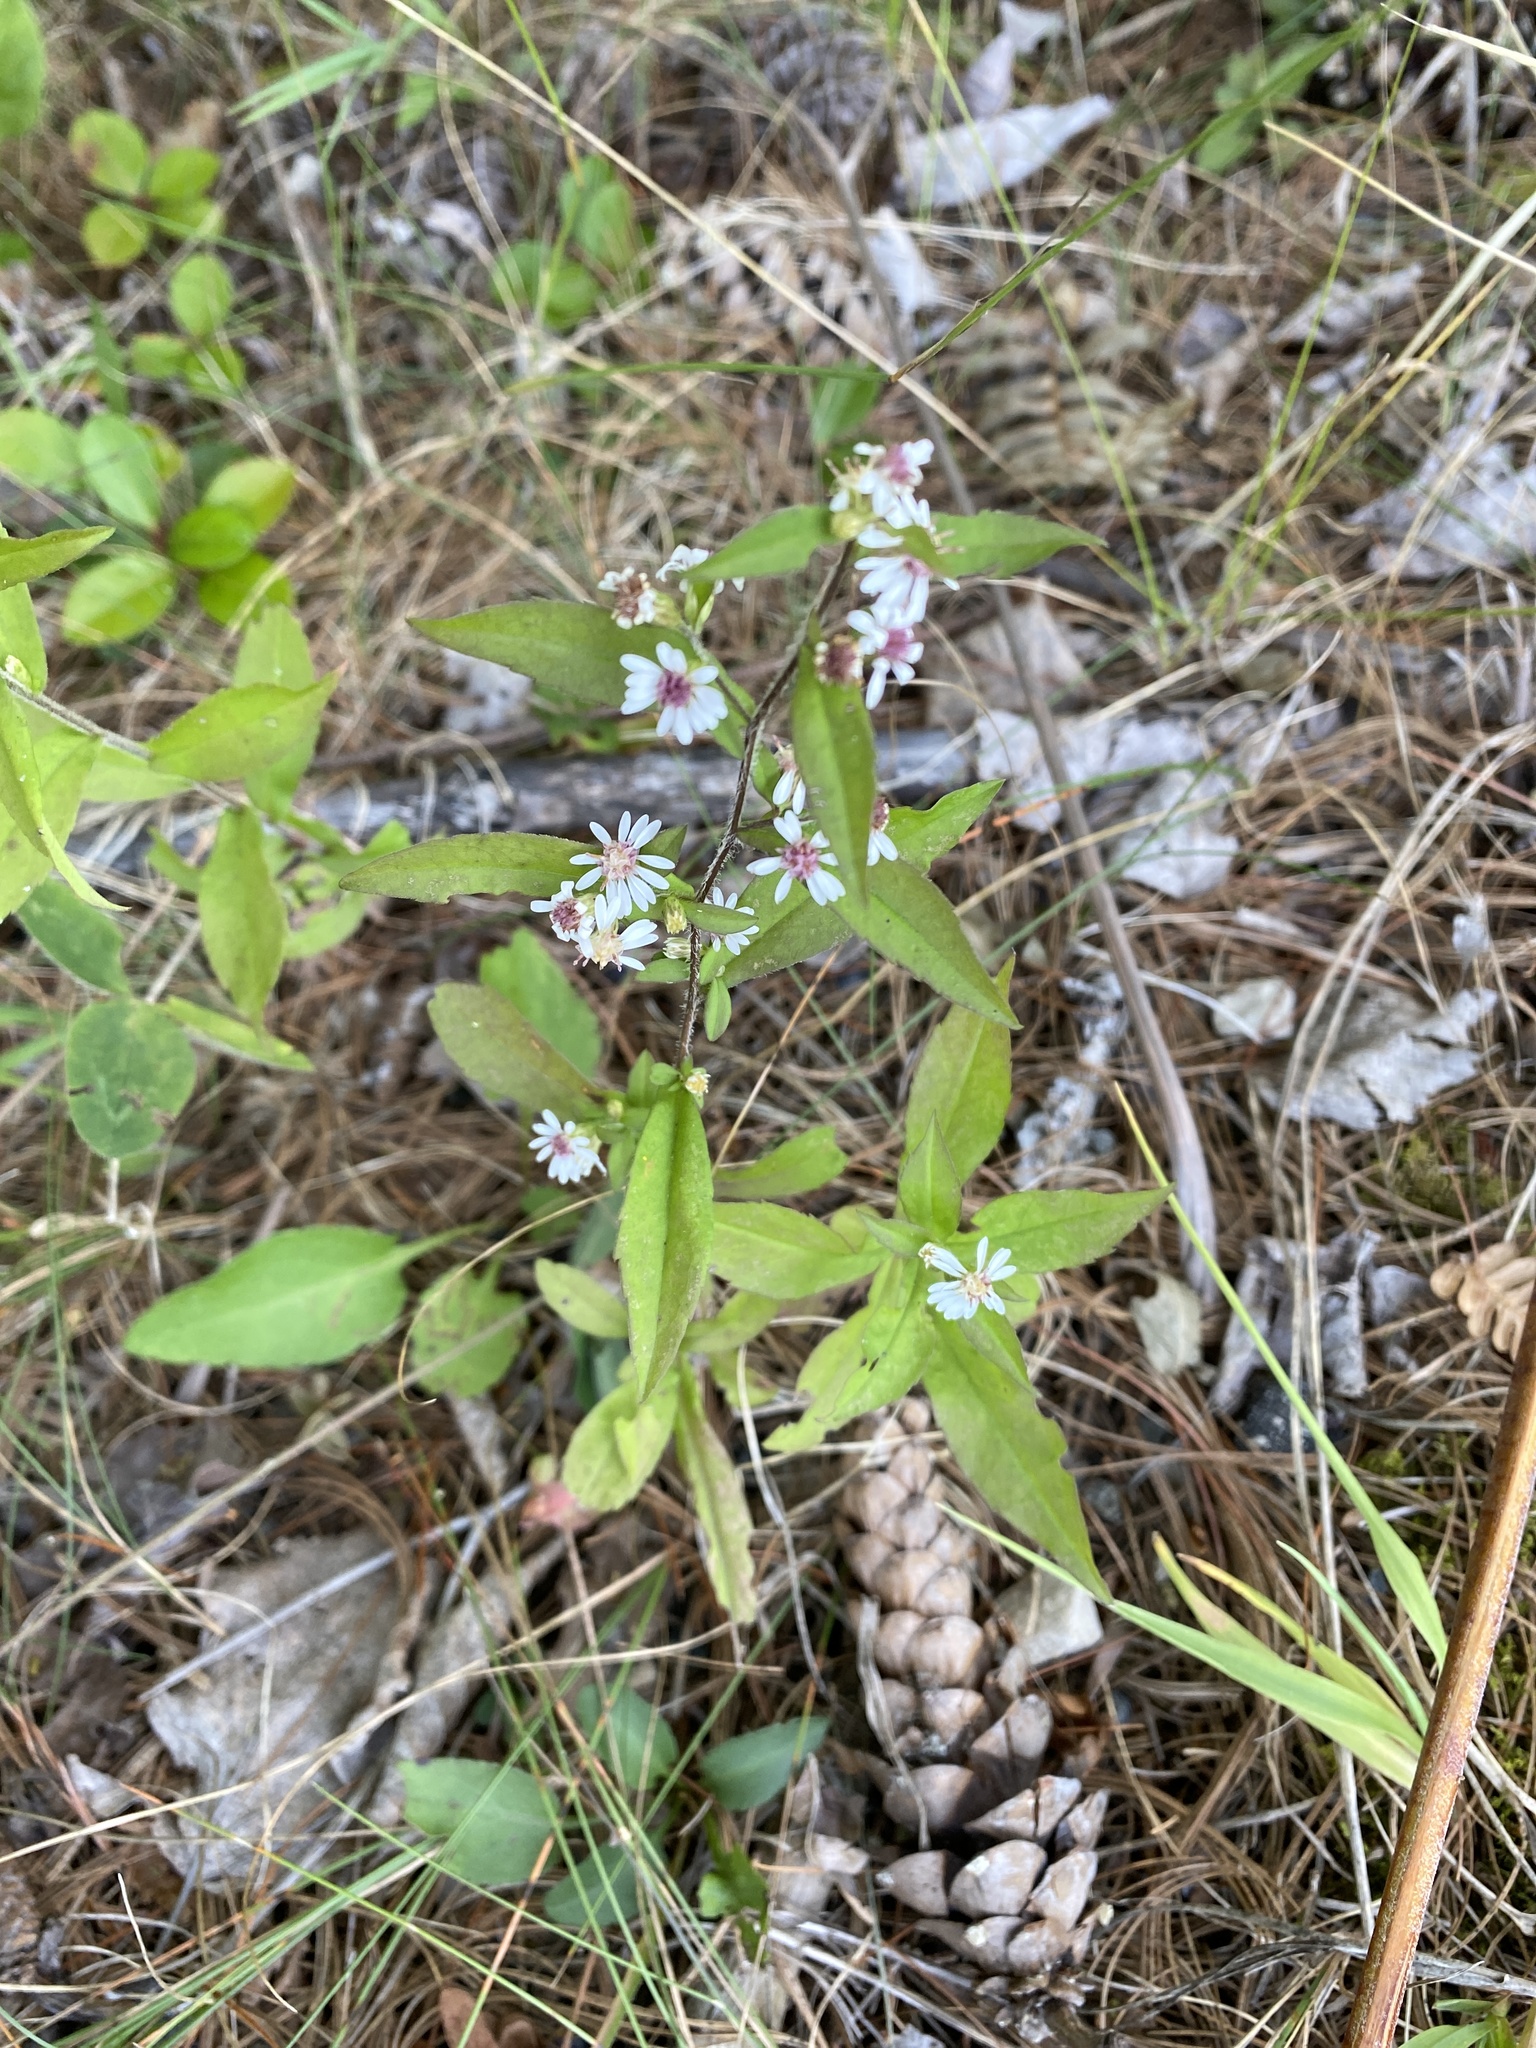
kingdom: Plantae
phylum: Tracheophyta
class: Magnoliopsida
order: Asterales
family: Asteraceae
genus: Symphyotrichum
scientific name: Symphyotrichum lateriflorum
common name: Calico aster
